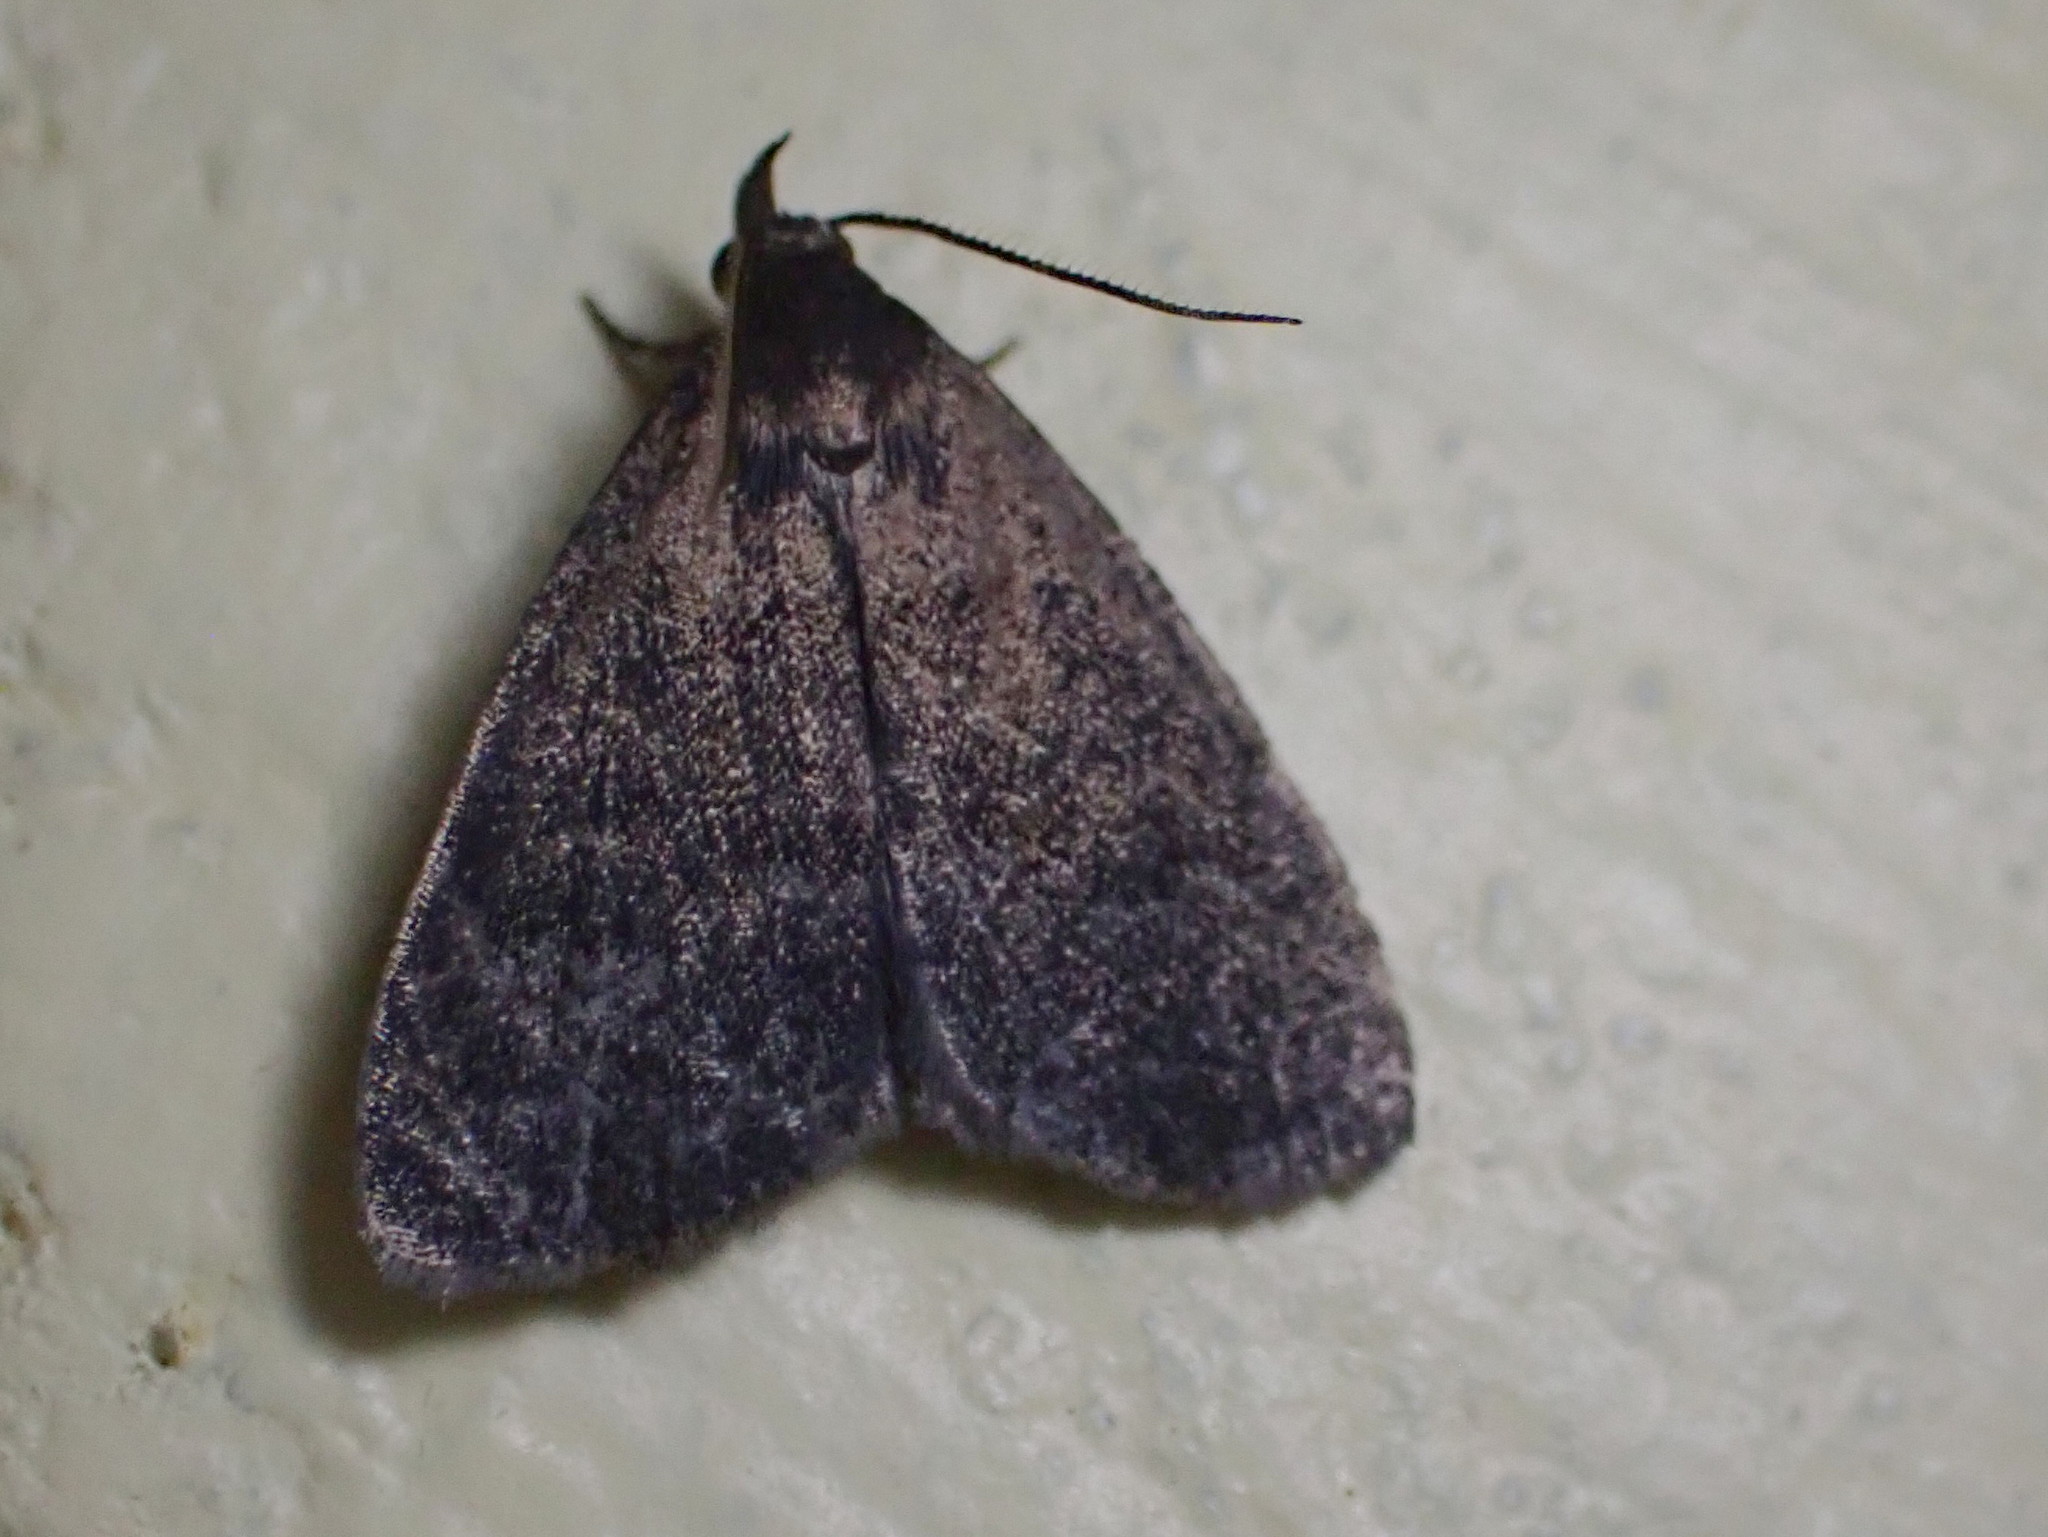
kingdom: Animalia
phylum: Arthropoda
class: Insecta
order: Lepidoptera
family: Erebidae
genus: Idia
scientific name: Idia rotundalis
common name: Rotund idia moth
